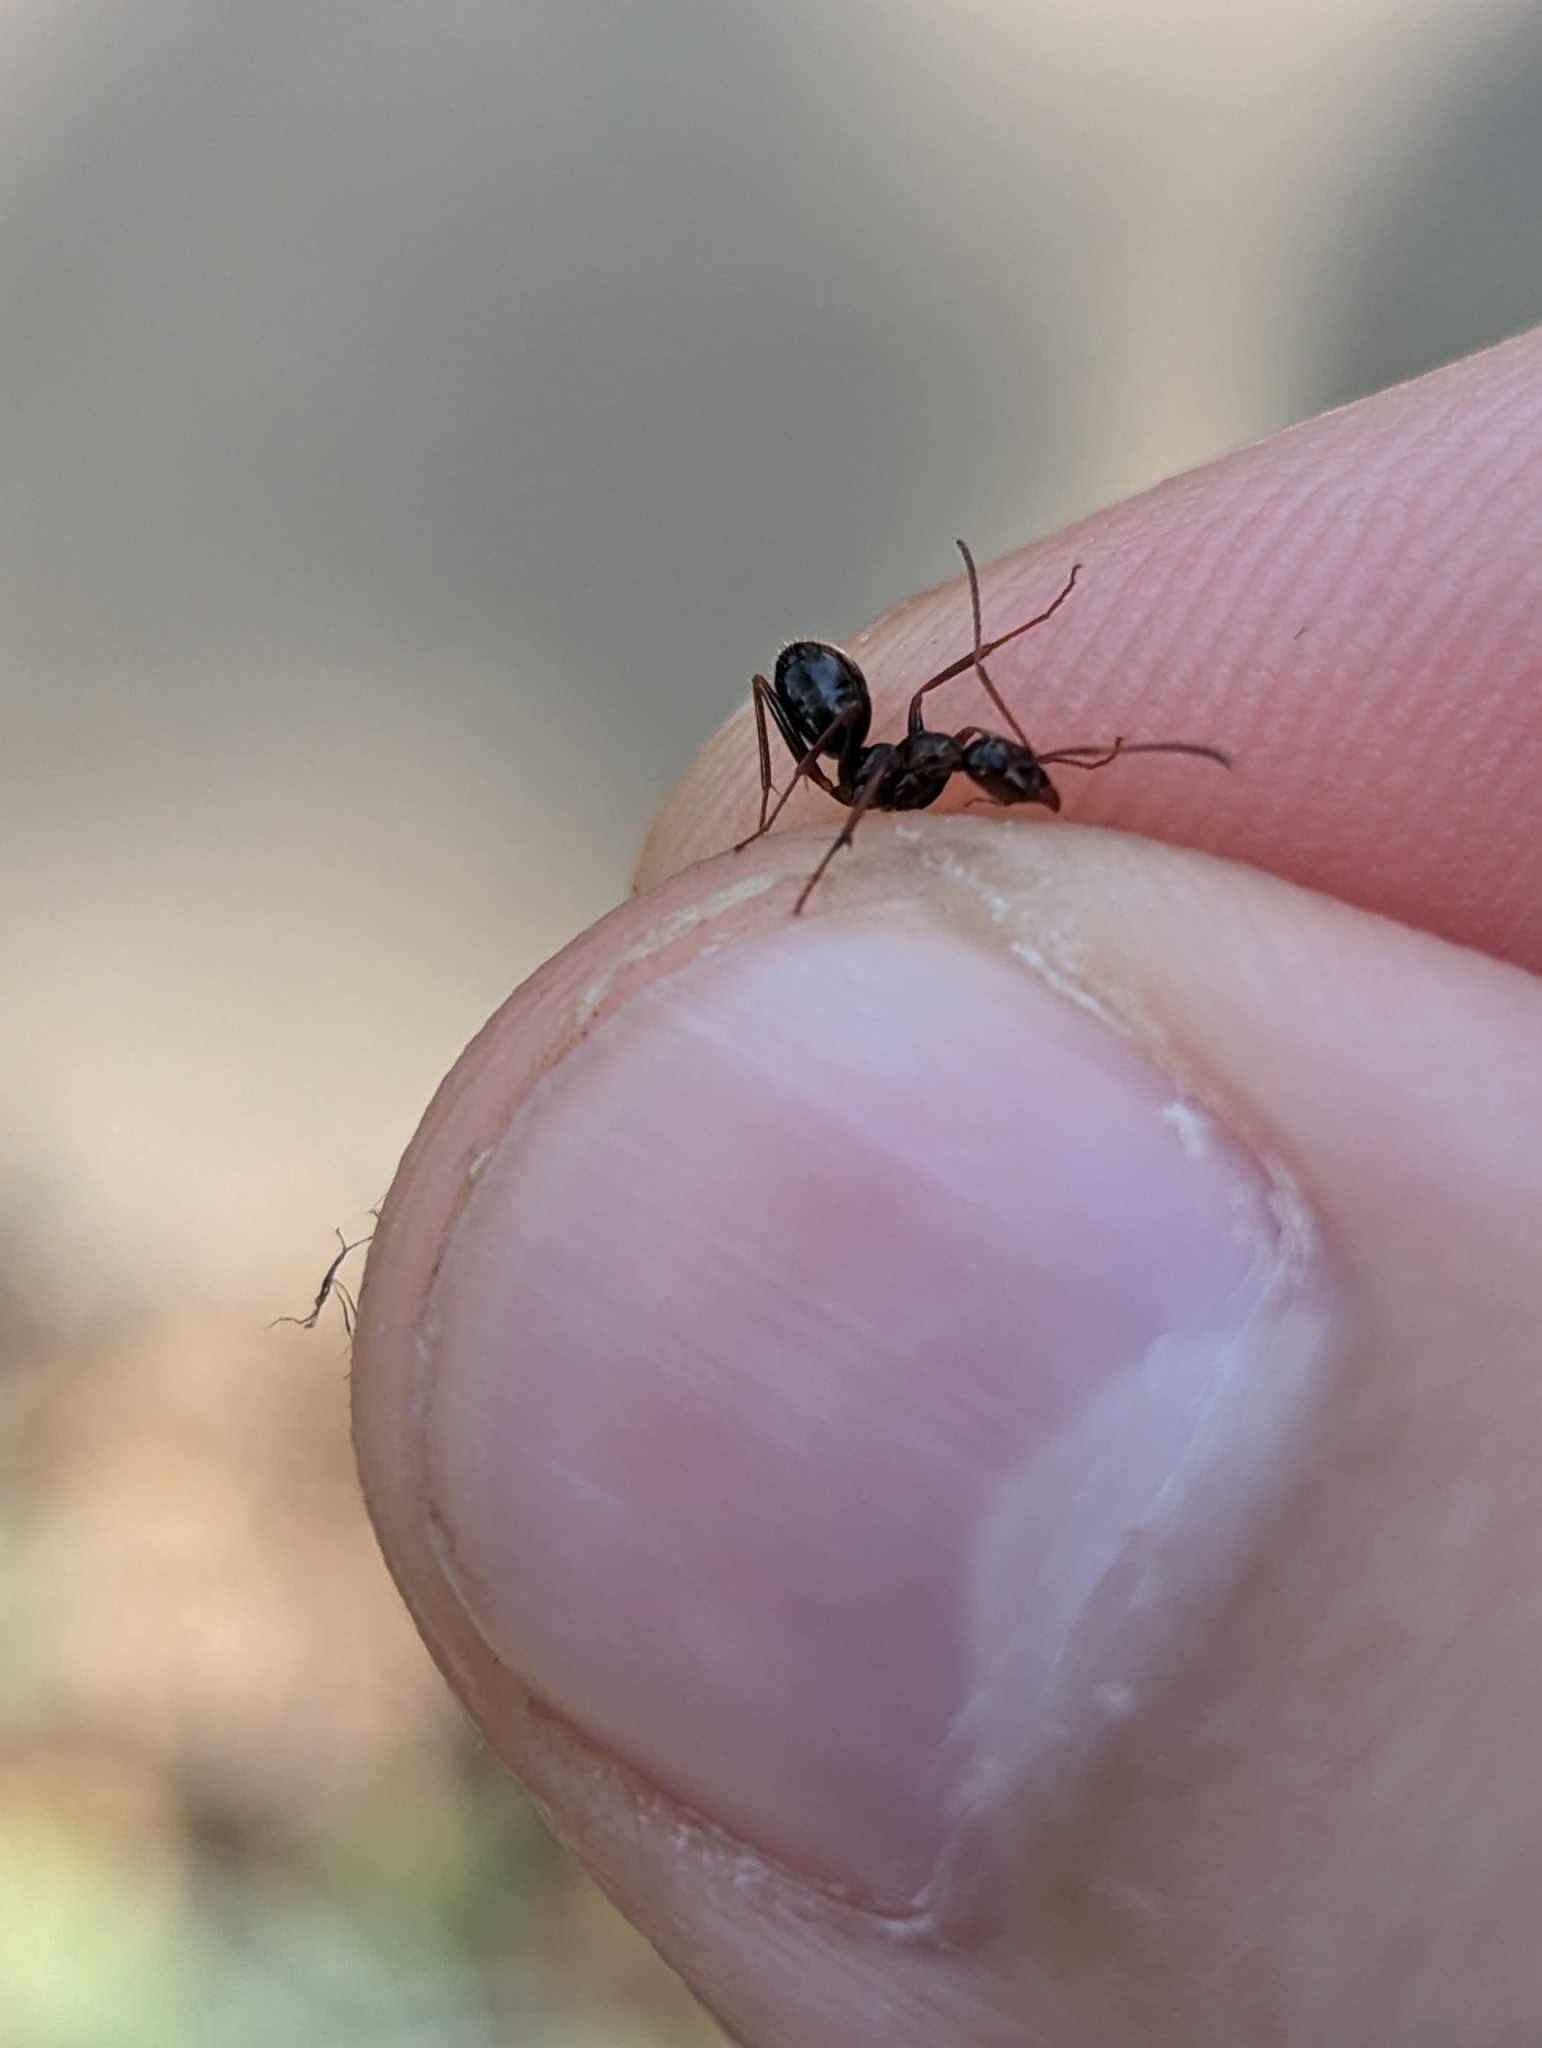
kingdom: Animalia
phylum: Arthropoda
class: Insecta
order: Hymenoptera
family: Formicidae
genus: Formica
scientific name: Formica pallidefulva
